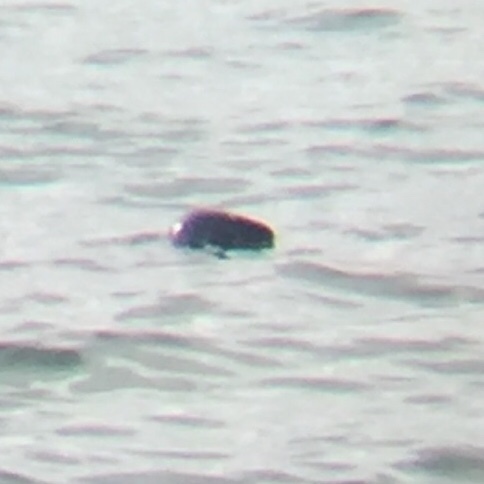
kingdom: Animalia
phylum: Chordata
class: Mammalia
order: Carnivora
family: Phocidae
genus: Halichoerus
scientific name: Halichoerus grypus
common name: Grey seal
